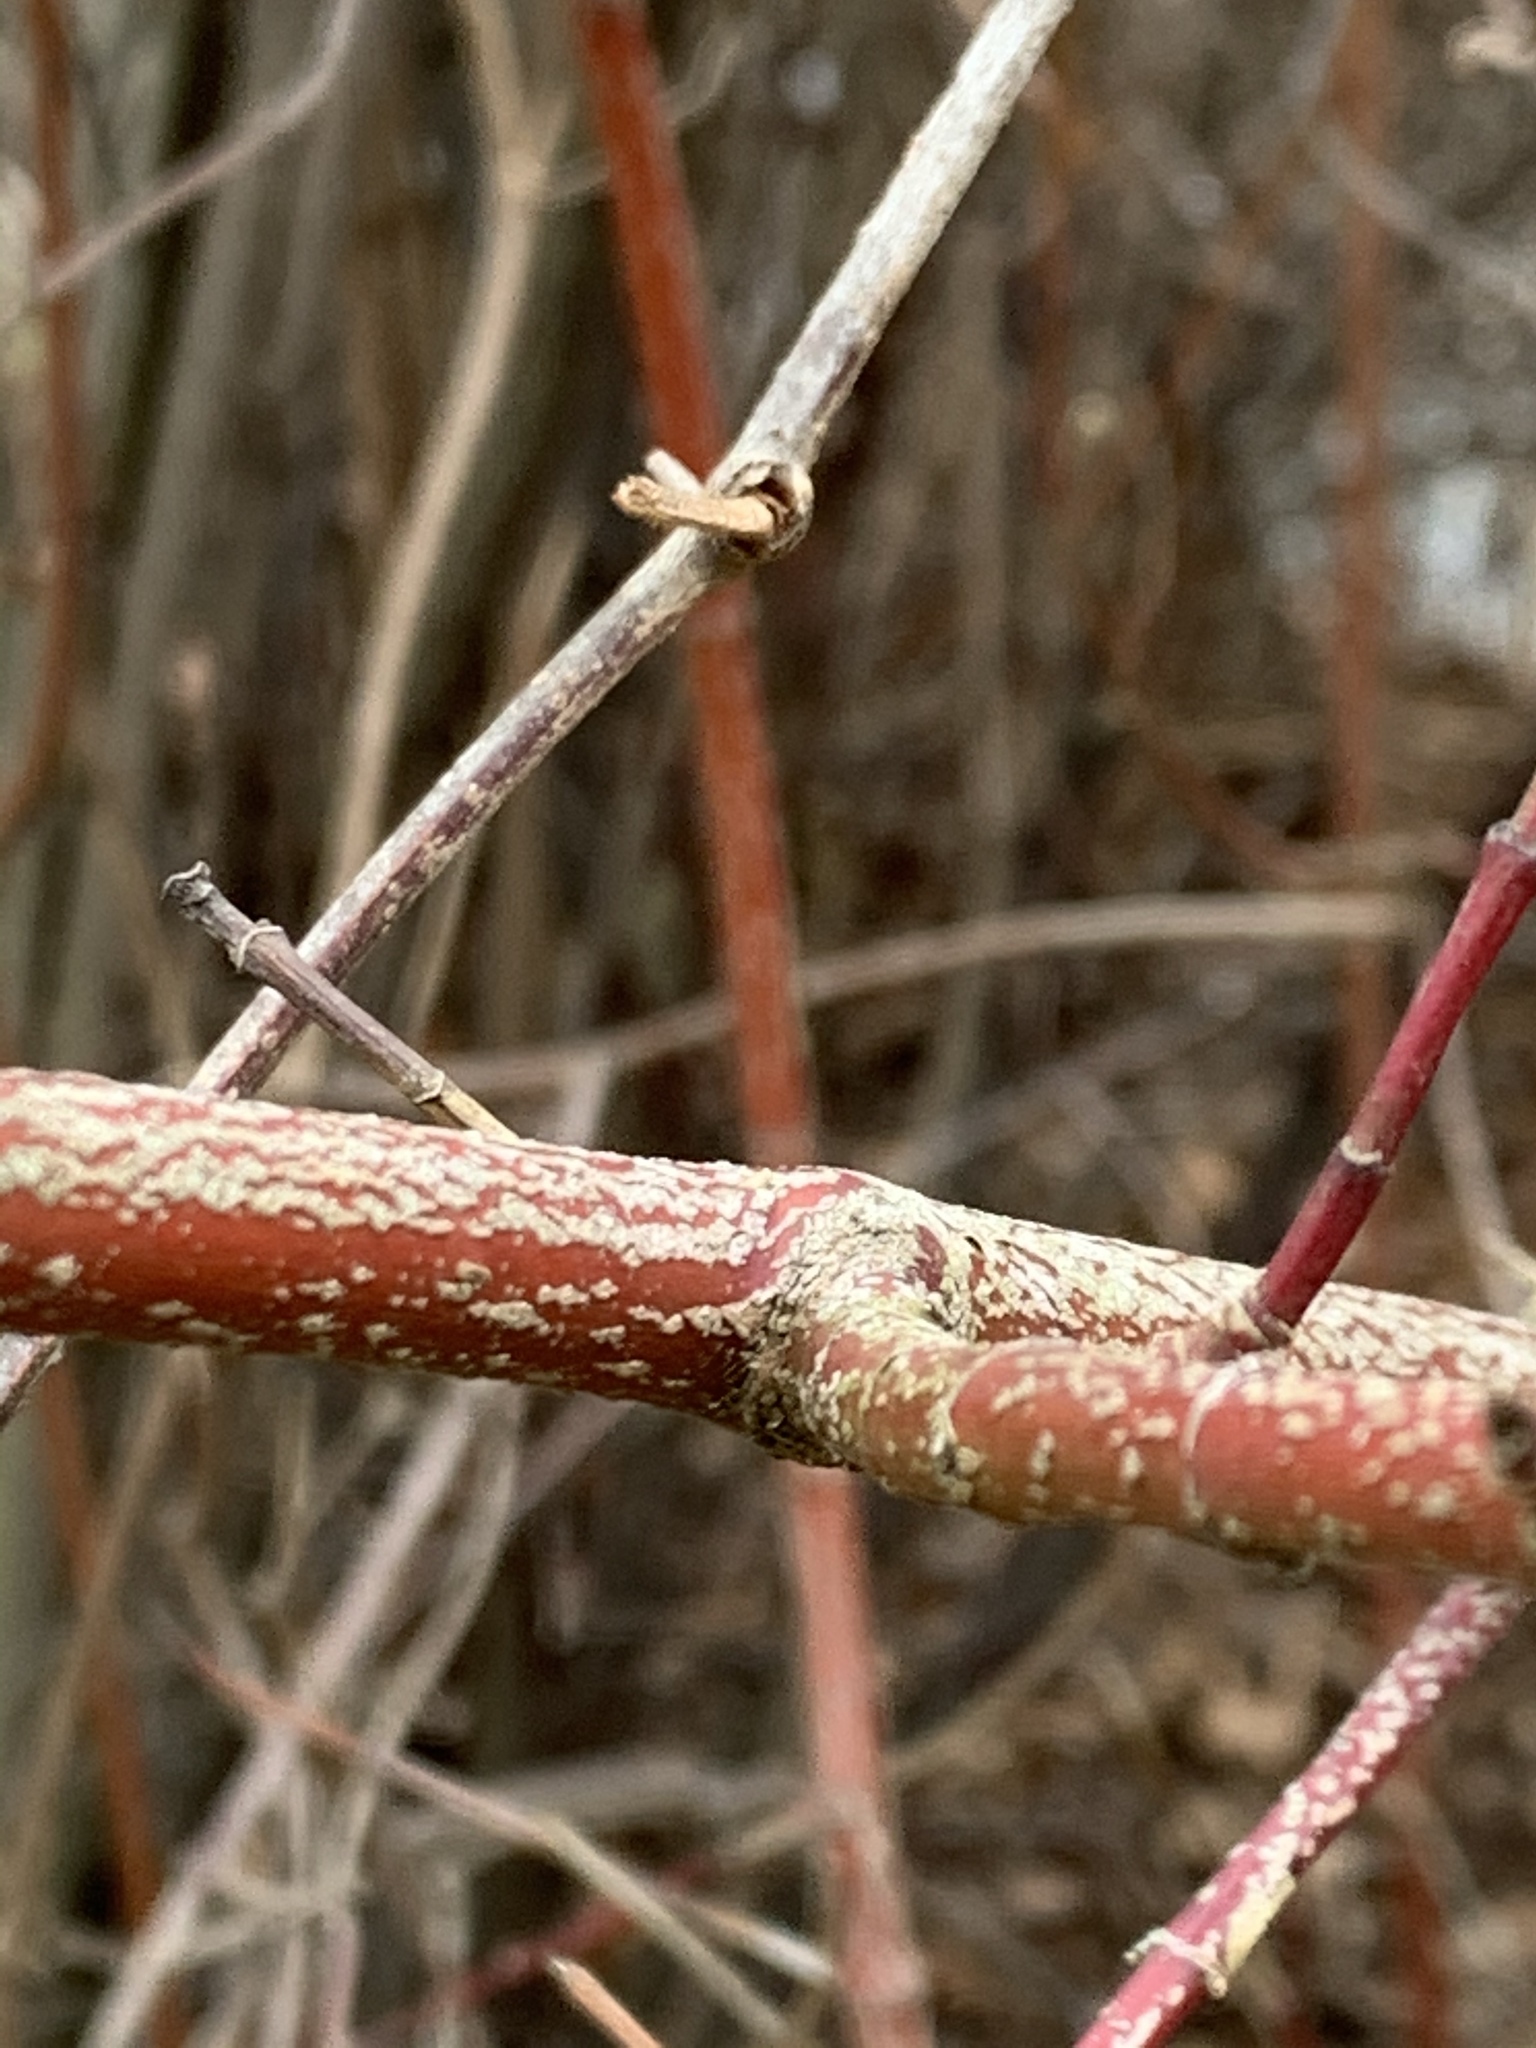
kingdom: Plantae
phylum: Tracheophyta
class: Magnoliopsida
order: Cornales
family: Cornaceae
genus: Cornus
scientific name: Cornus amomum
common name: Silky dogwood
